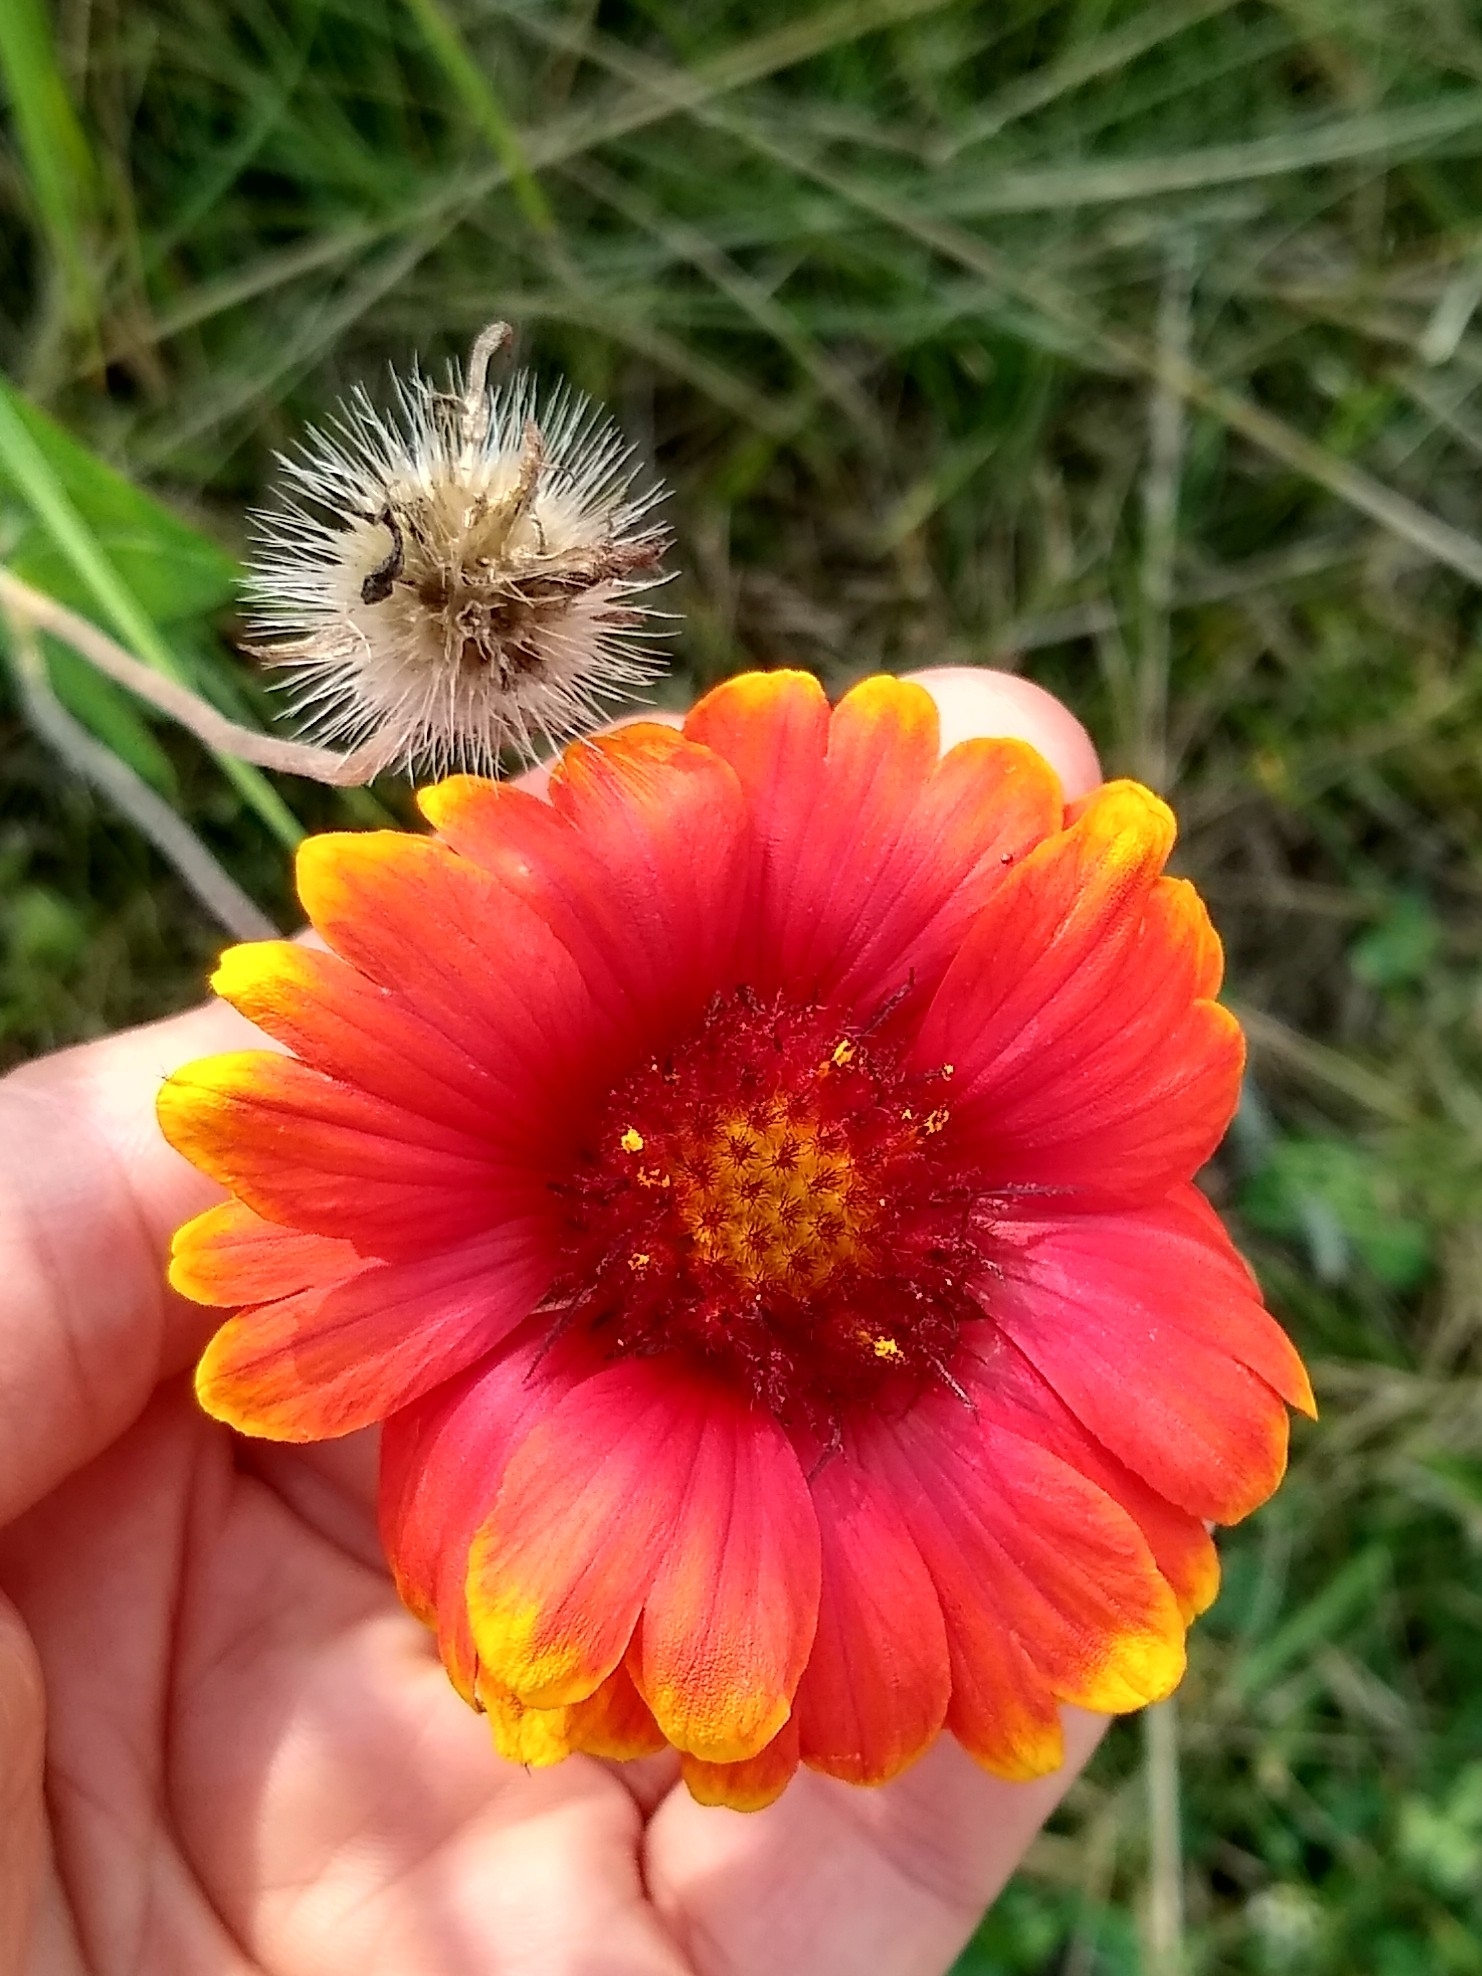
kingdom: Plantae
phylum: Tracheophyta
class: Magnoliopsida
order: Asterales
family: Asteraceae
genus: Gaillardia
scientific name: Gaillardia pulchella
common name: Firewheel
